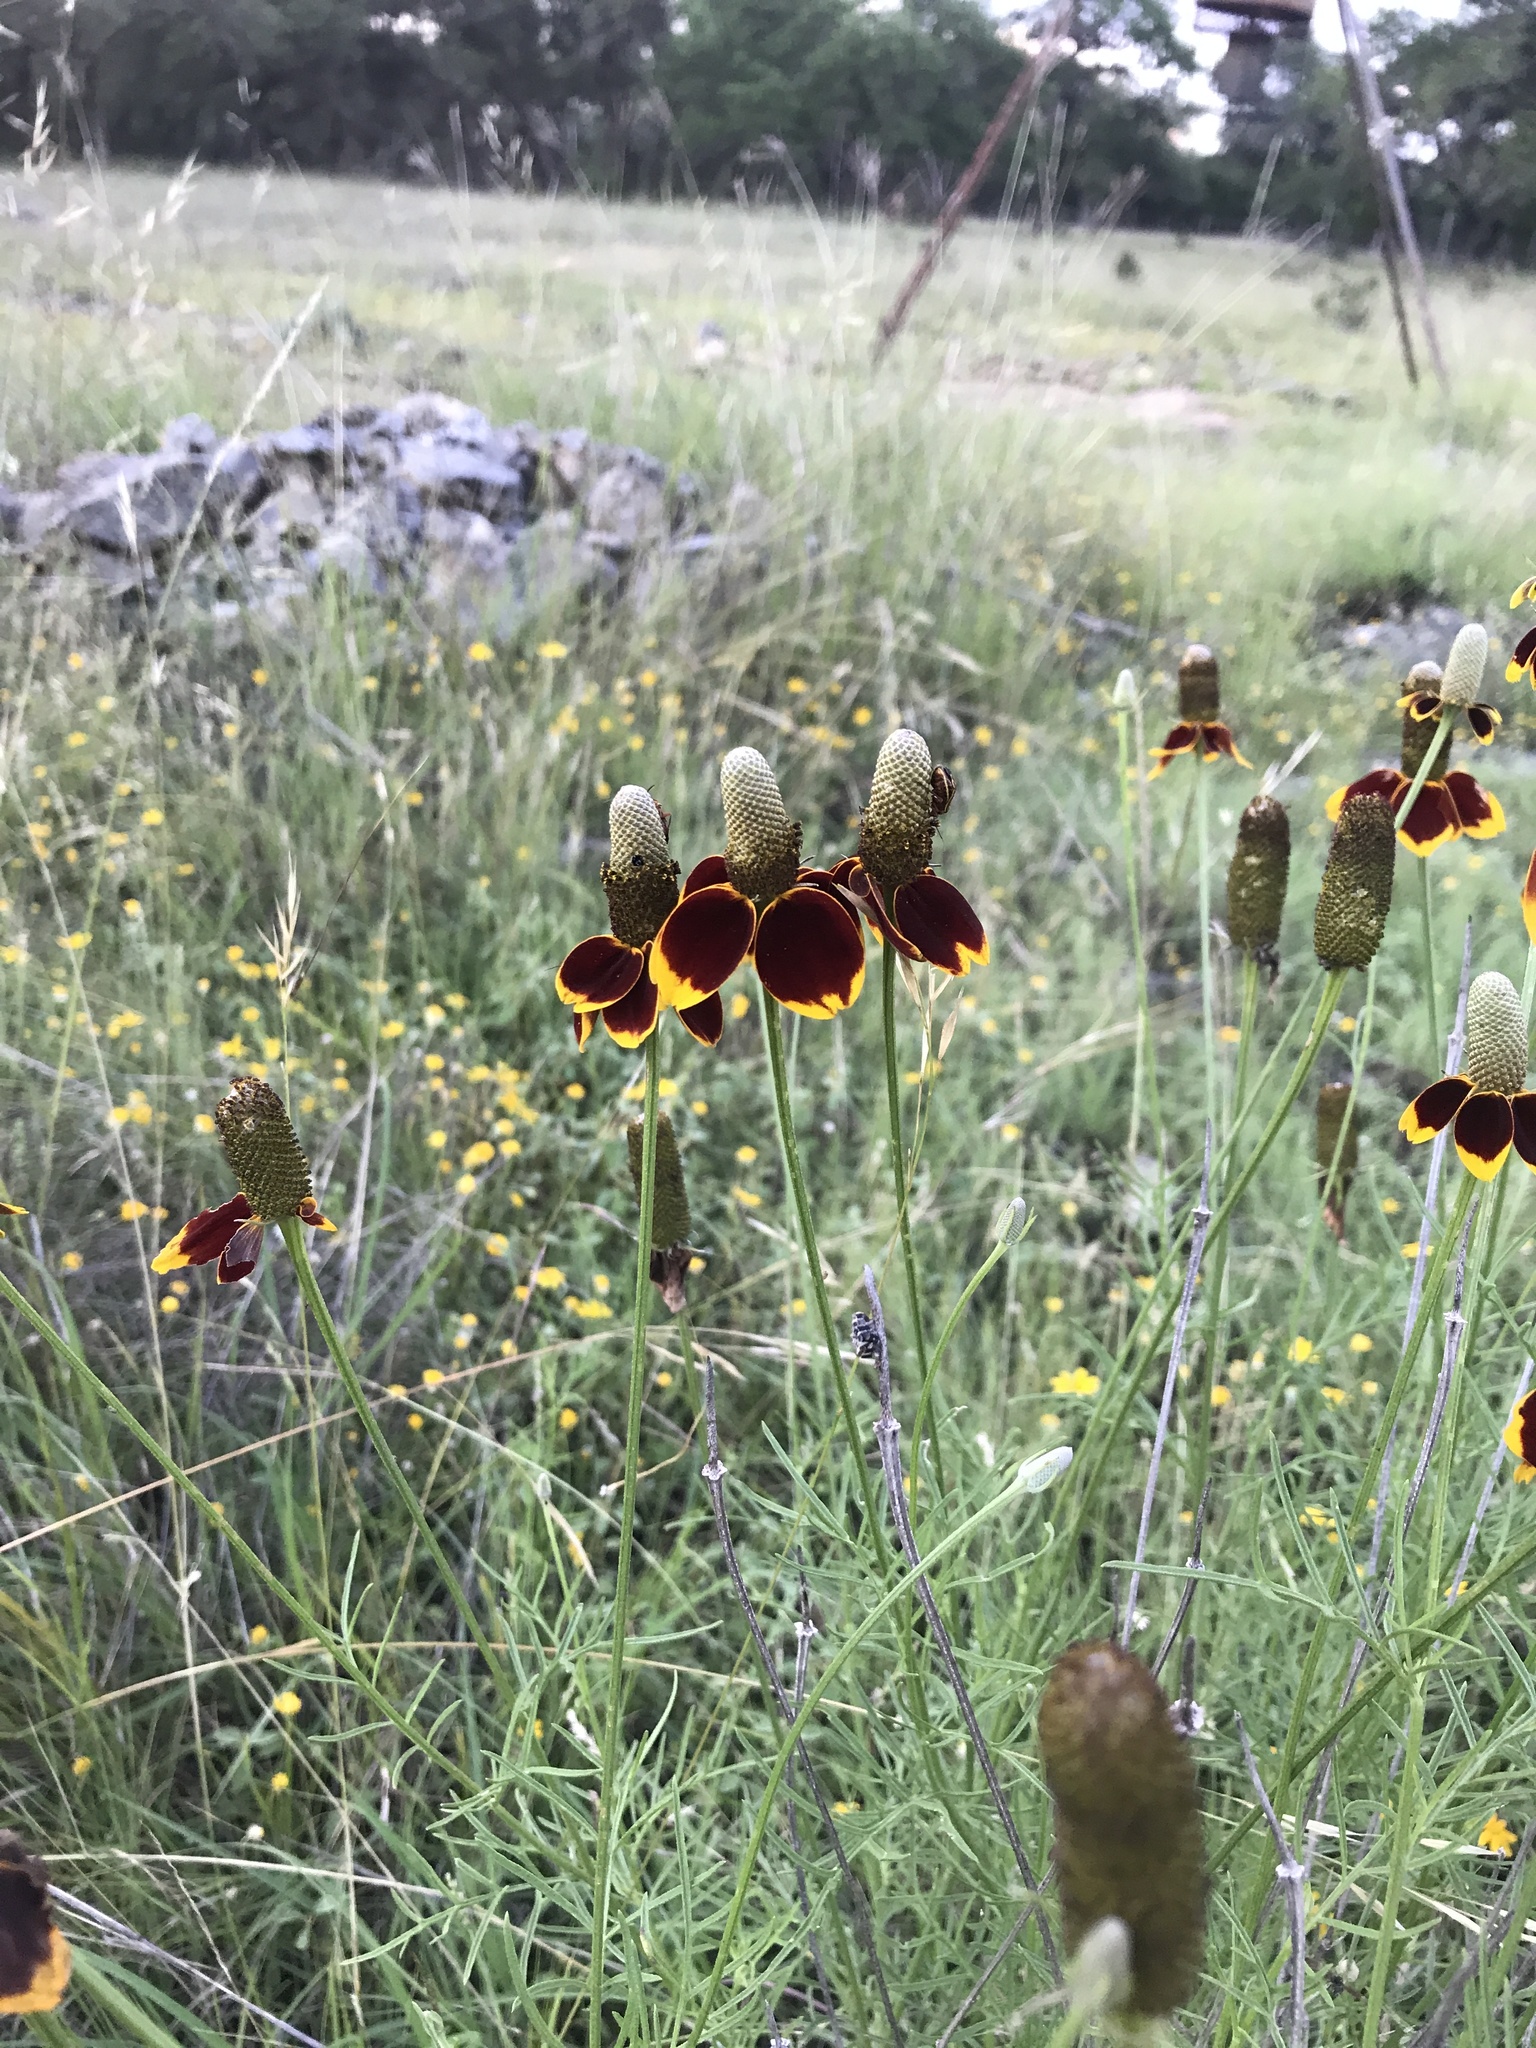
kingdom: Plantae
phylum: Tracheophyta
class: Magnoliopsida
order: Asterales
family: Asteraceae
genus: Ratibida
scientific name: Ratibida columnifera
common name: Prairie coneflower
